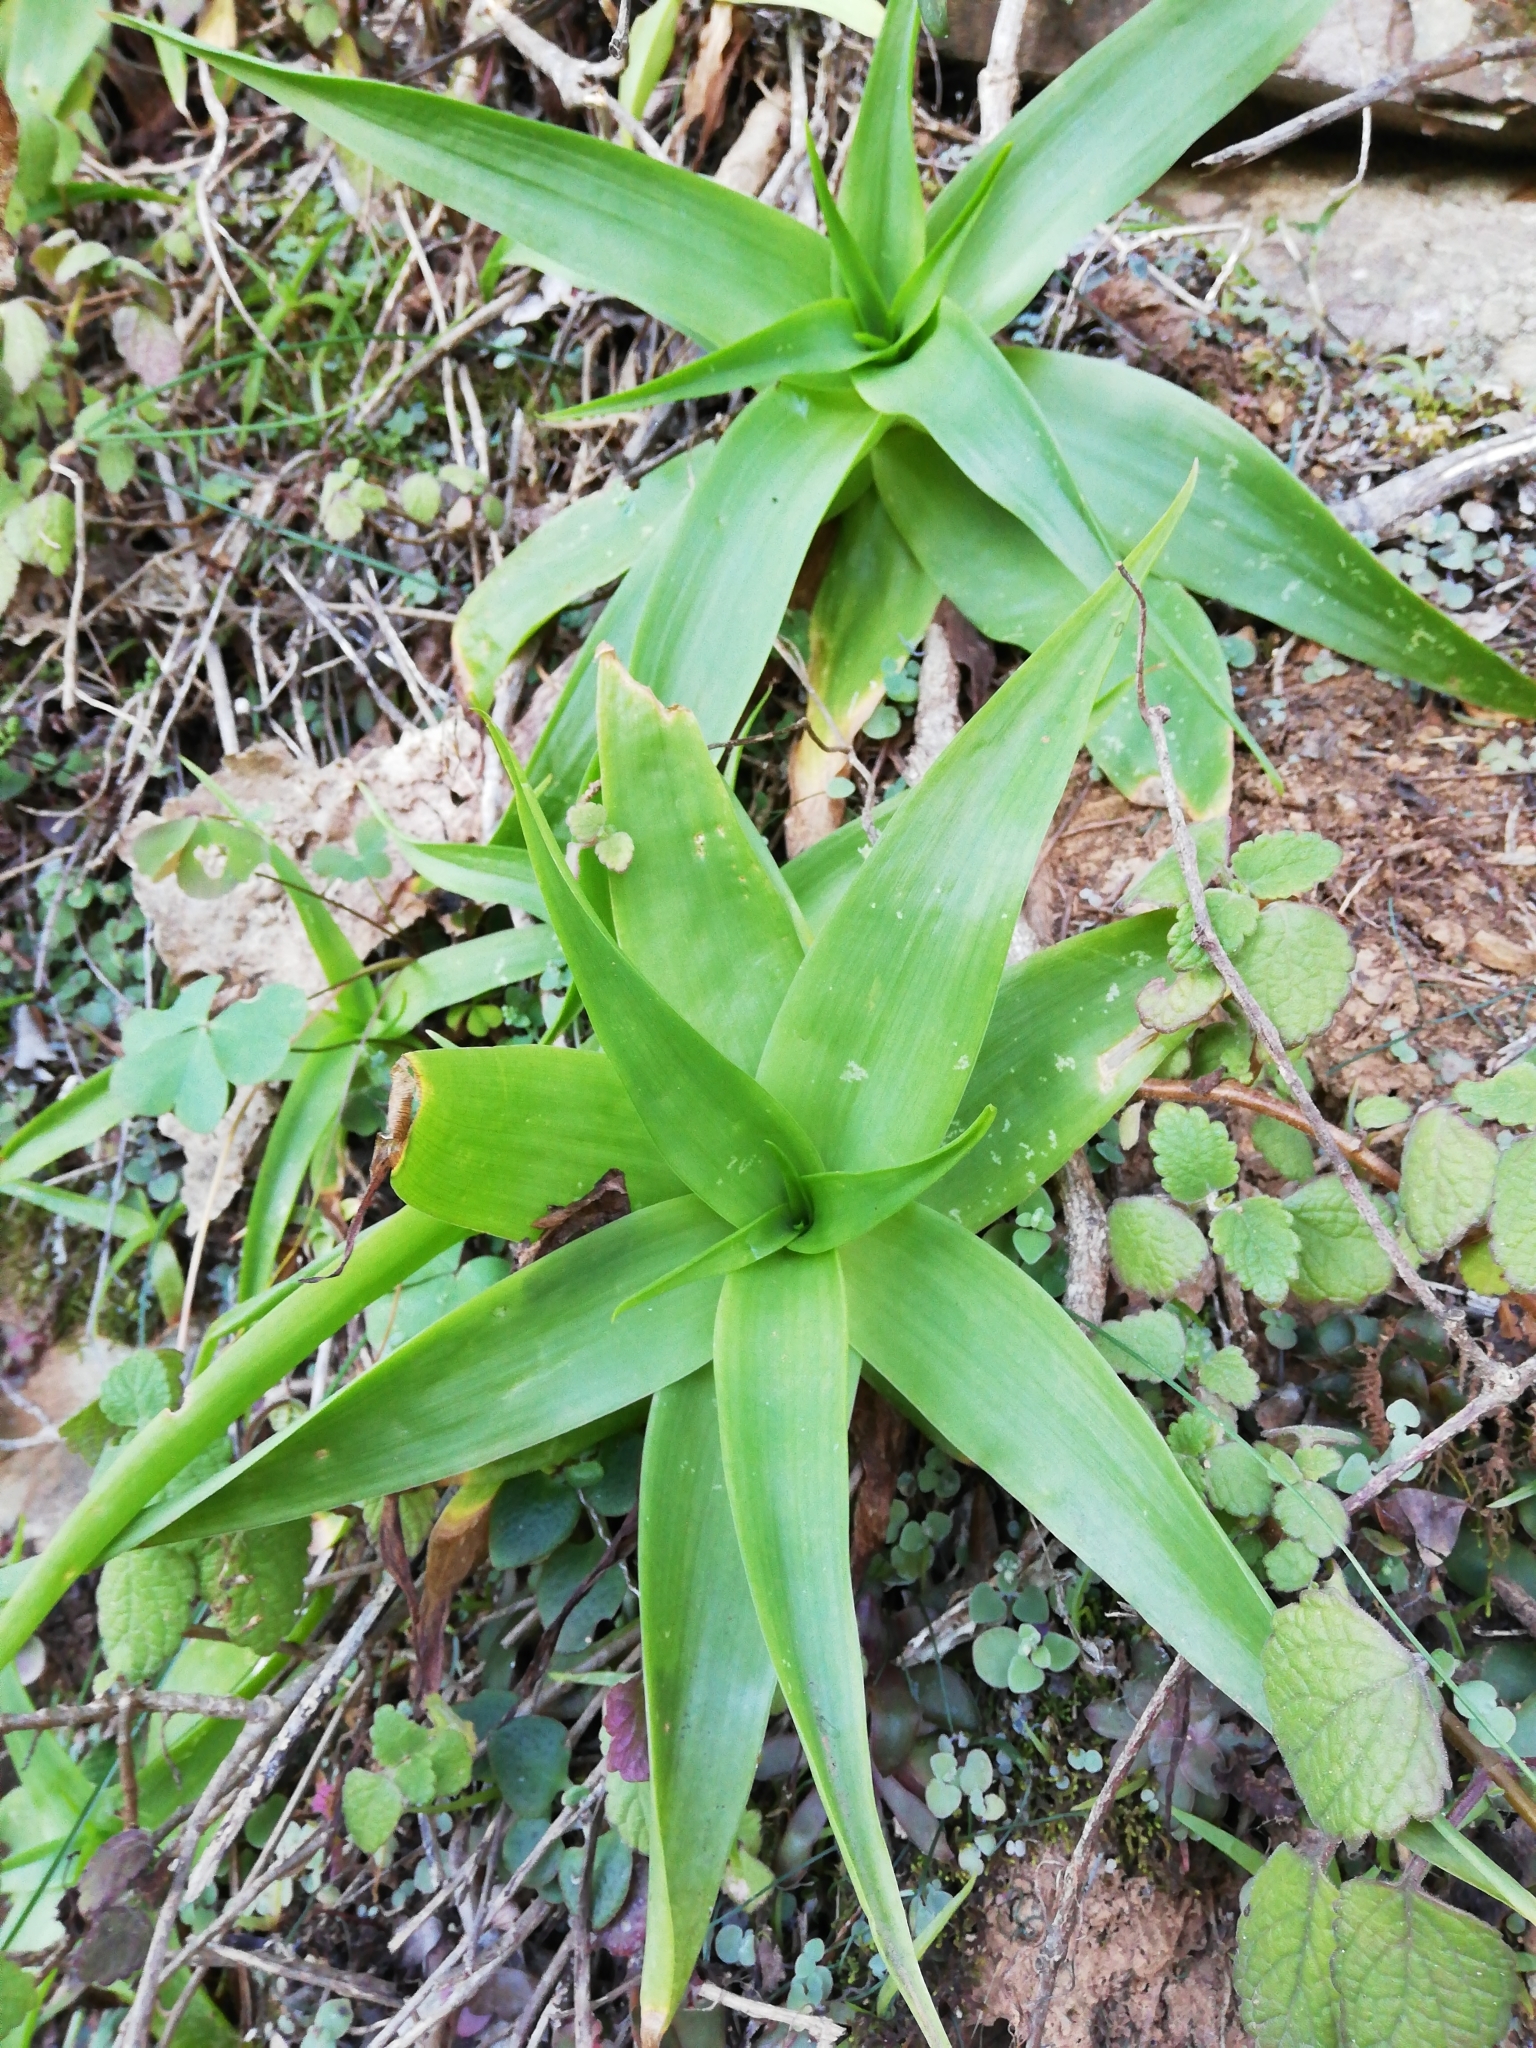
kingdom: Plantae
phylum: Tracheophyta
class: Liliopsida
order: Asparagales
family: Asphodelaceae
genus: Bulbine
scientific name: Bulbine latifolia
